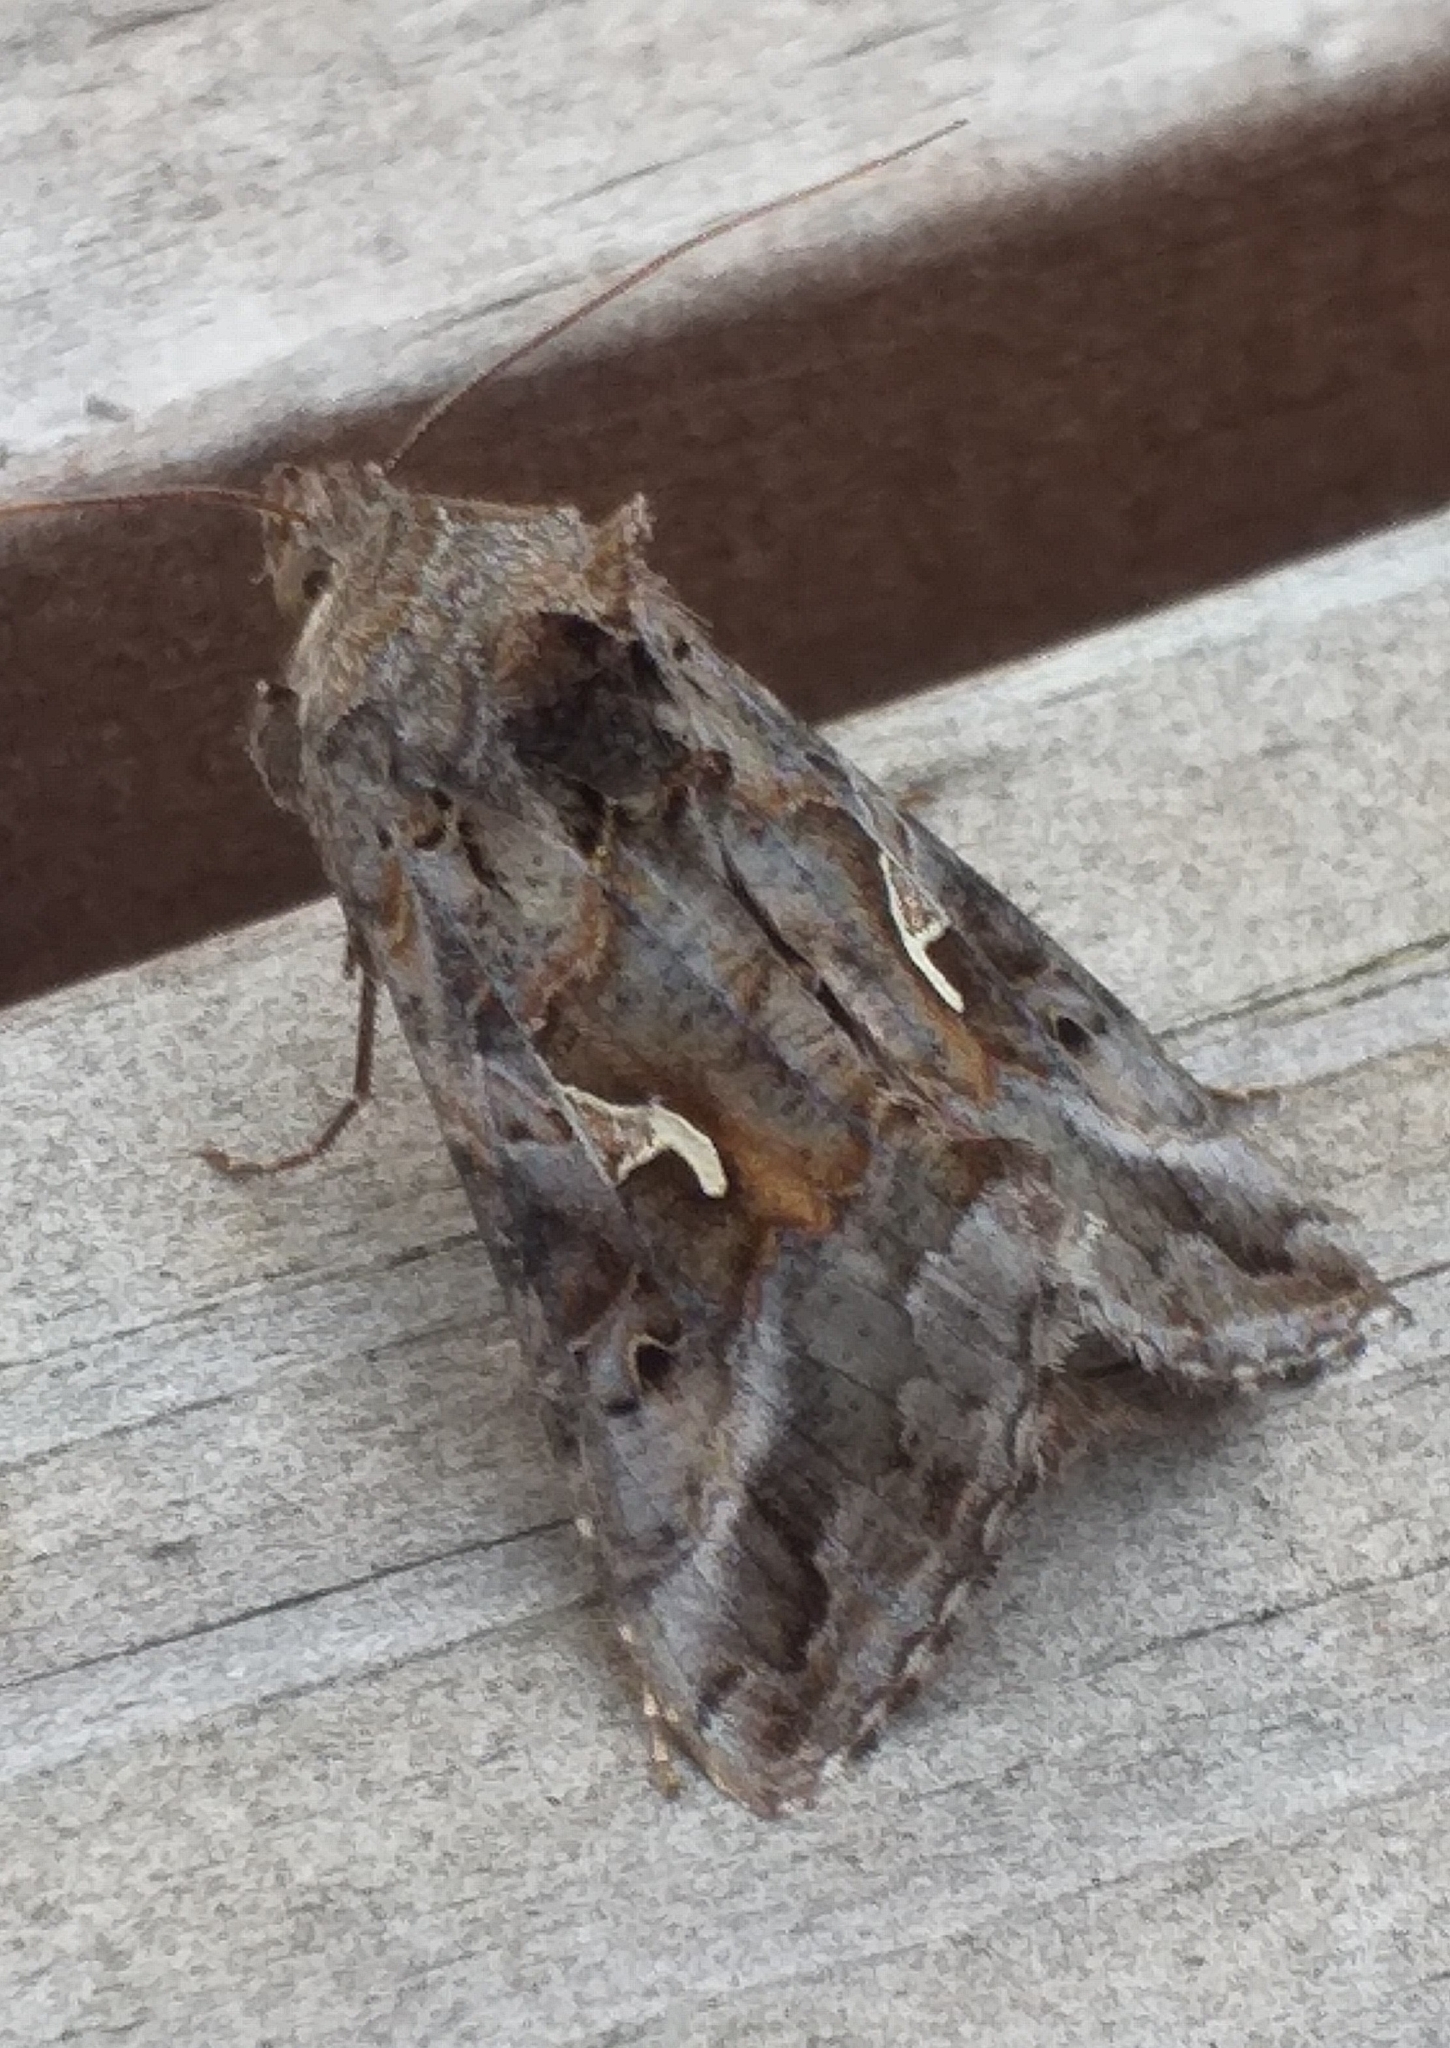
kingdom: Animalia
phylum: Arthropoda
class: Insecta
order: Lepidoptera
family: Noctuidae
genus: Autographa
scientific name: Autographa gamma
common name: Silver y
